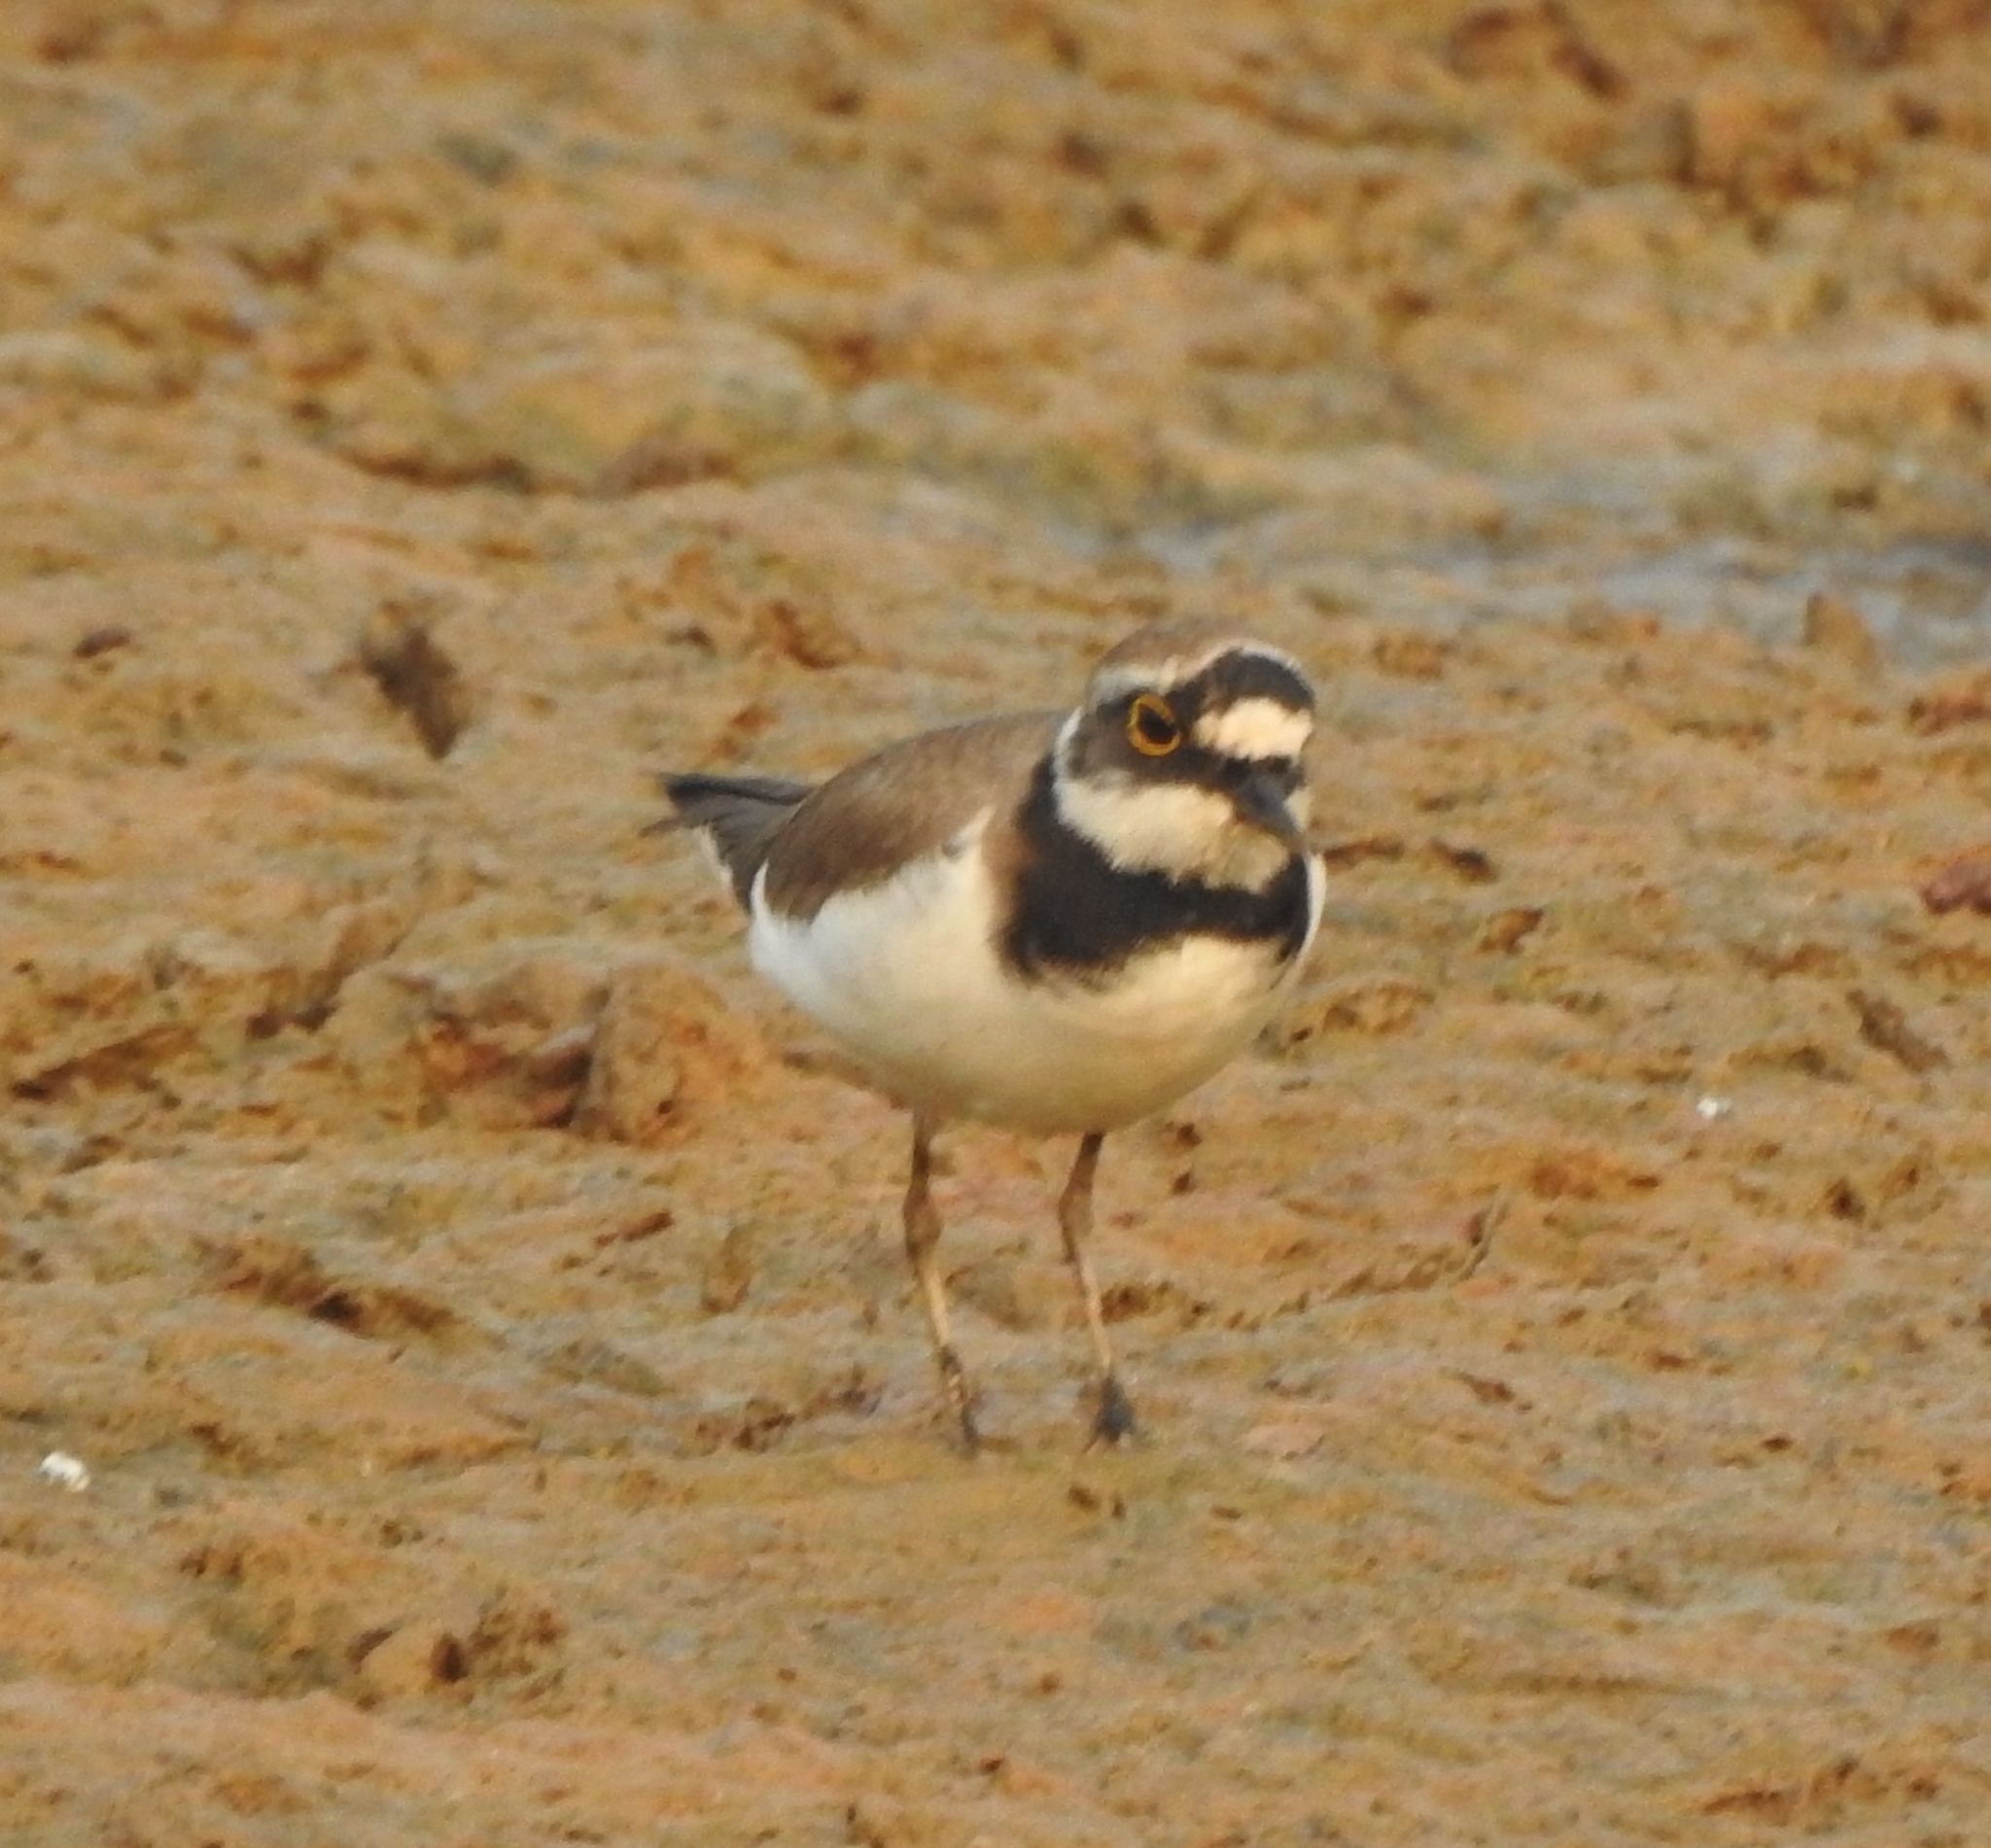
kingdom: Animalia
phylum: Chordata
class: Aves
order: Charadriiformes
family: Charadriidae
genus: Charadrius
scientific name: Charadrius dubius
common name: Little ringed plover
